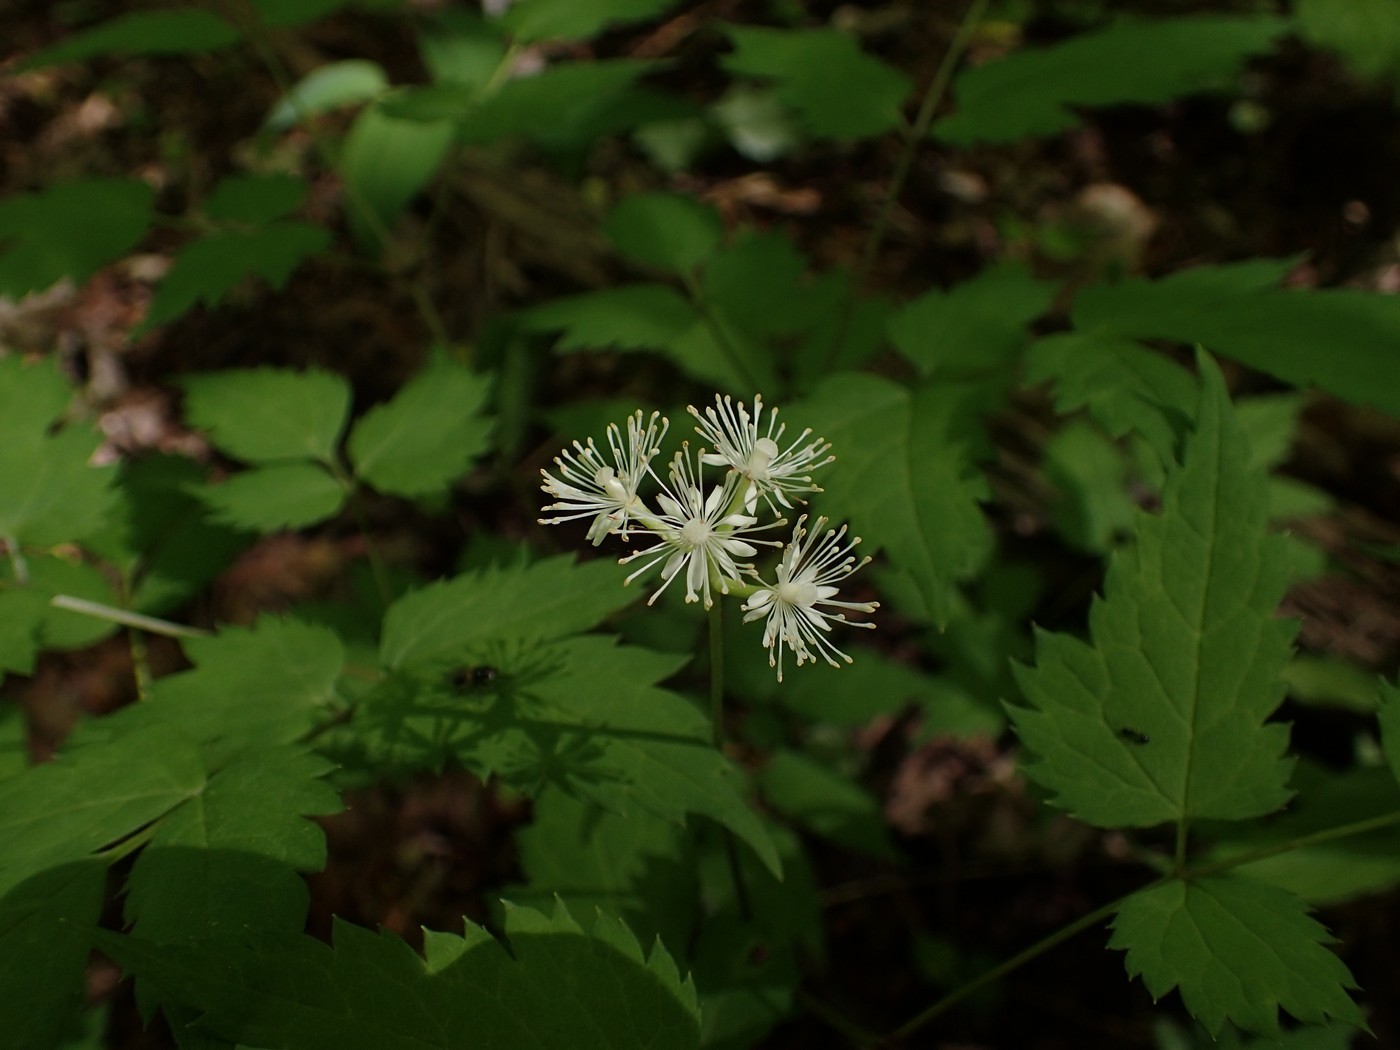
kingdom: Plantae
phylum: Tracheophyta
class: Magnoliopsida
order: Ranunculales
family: Ranunculaceae
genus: Actaea
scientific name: Actaea pachypoda
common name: Doll's-eyes
